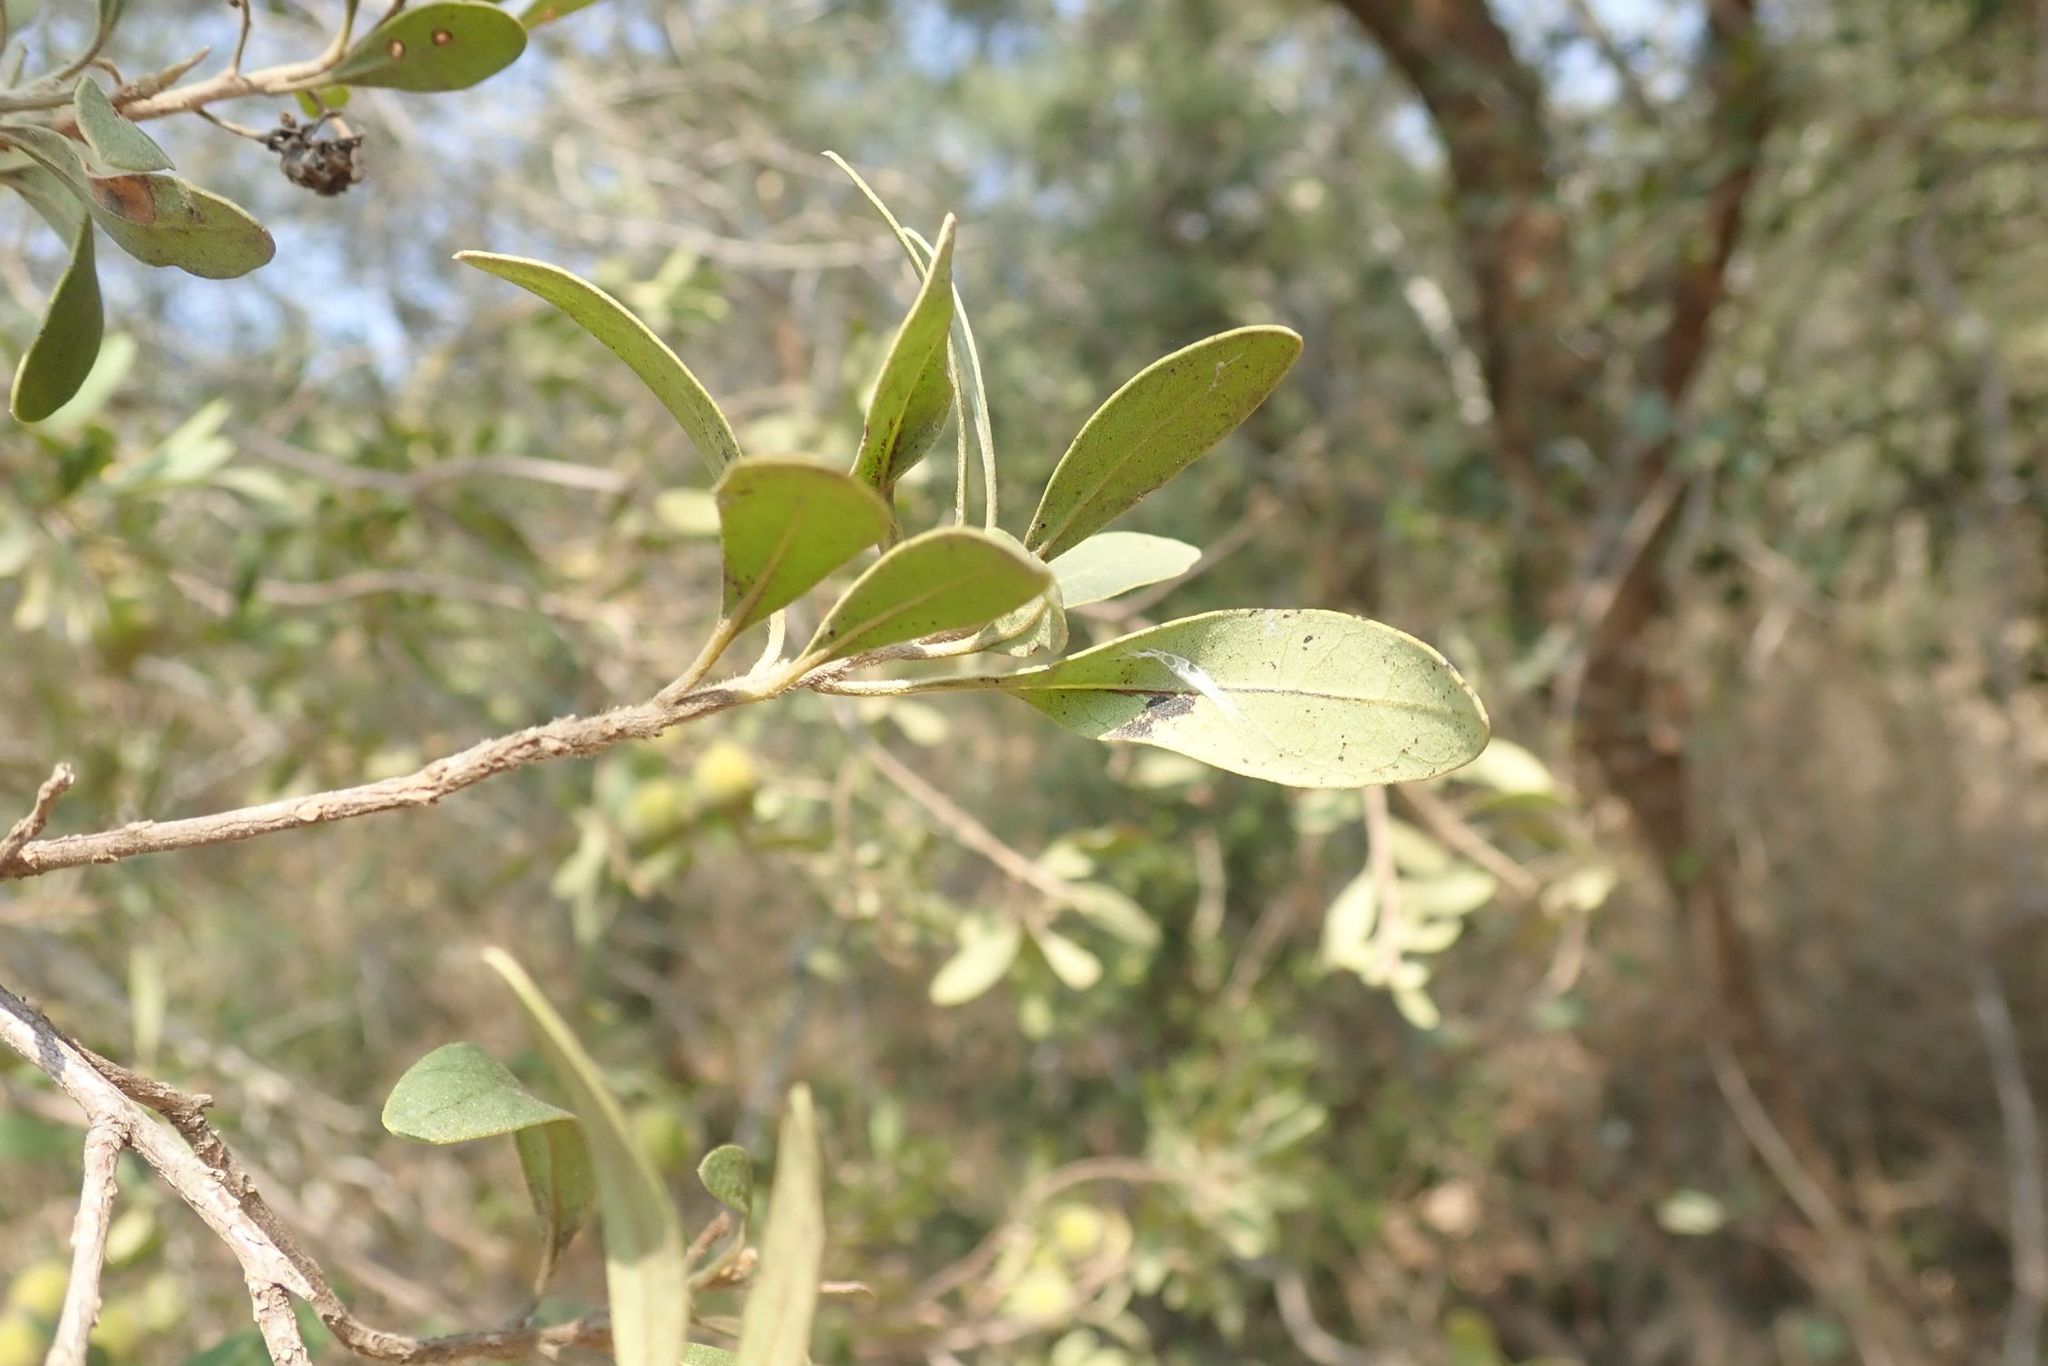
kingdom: Plantae
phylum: Tracheophyta
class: Magnoliopsida
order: Ericales
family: Ebenaceae
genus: Diospyros
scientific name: Diospyros lycioides
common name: Red star apple
